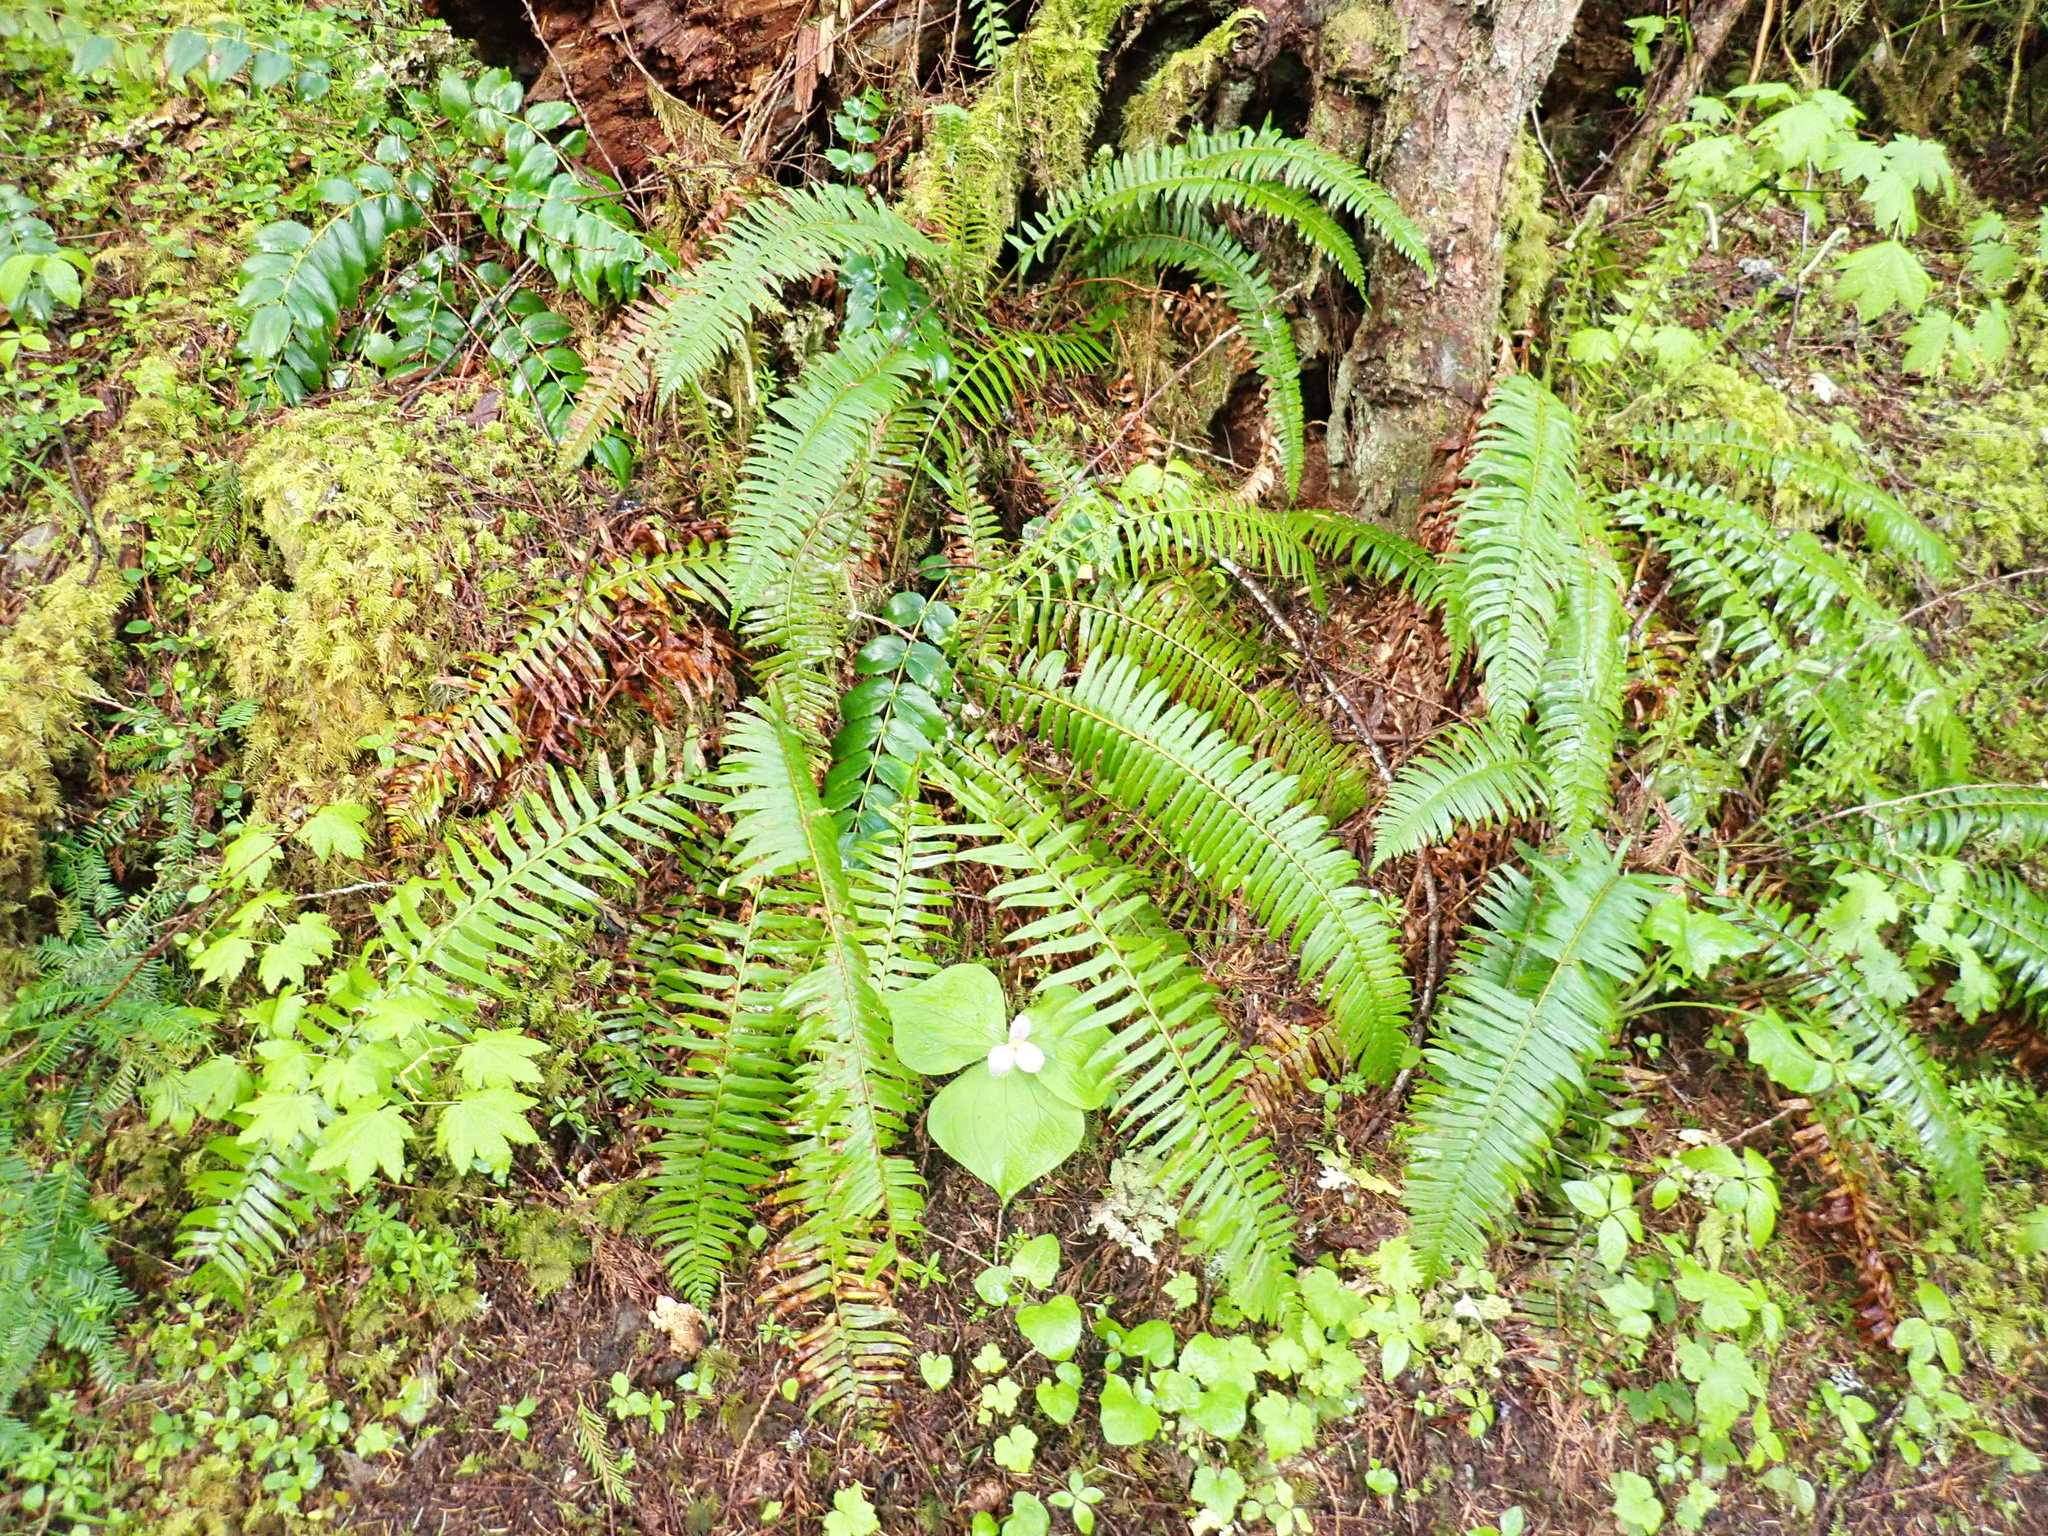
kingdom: Plantae
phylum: Tracheophyta
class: Polypodiopsida
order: Polypodiales
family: Dryopteridaceae
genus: Polystichum
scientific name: Polystichum munitum
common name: Western sword-fern
